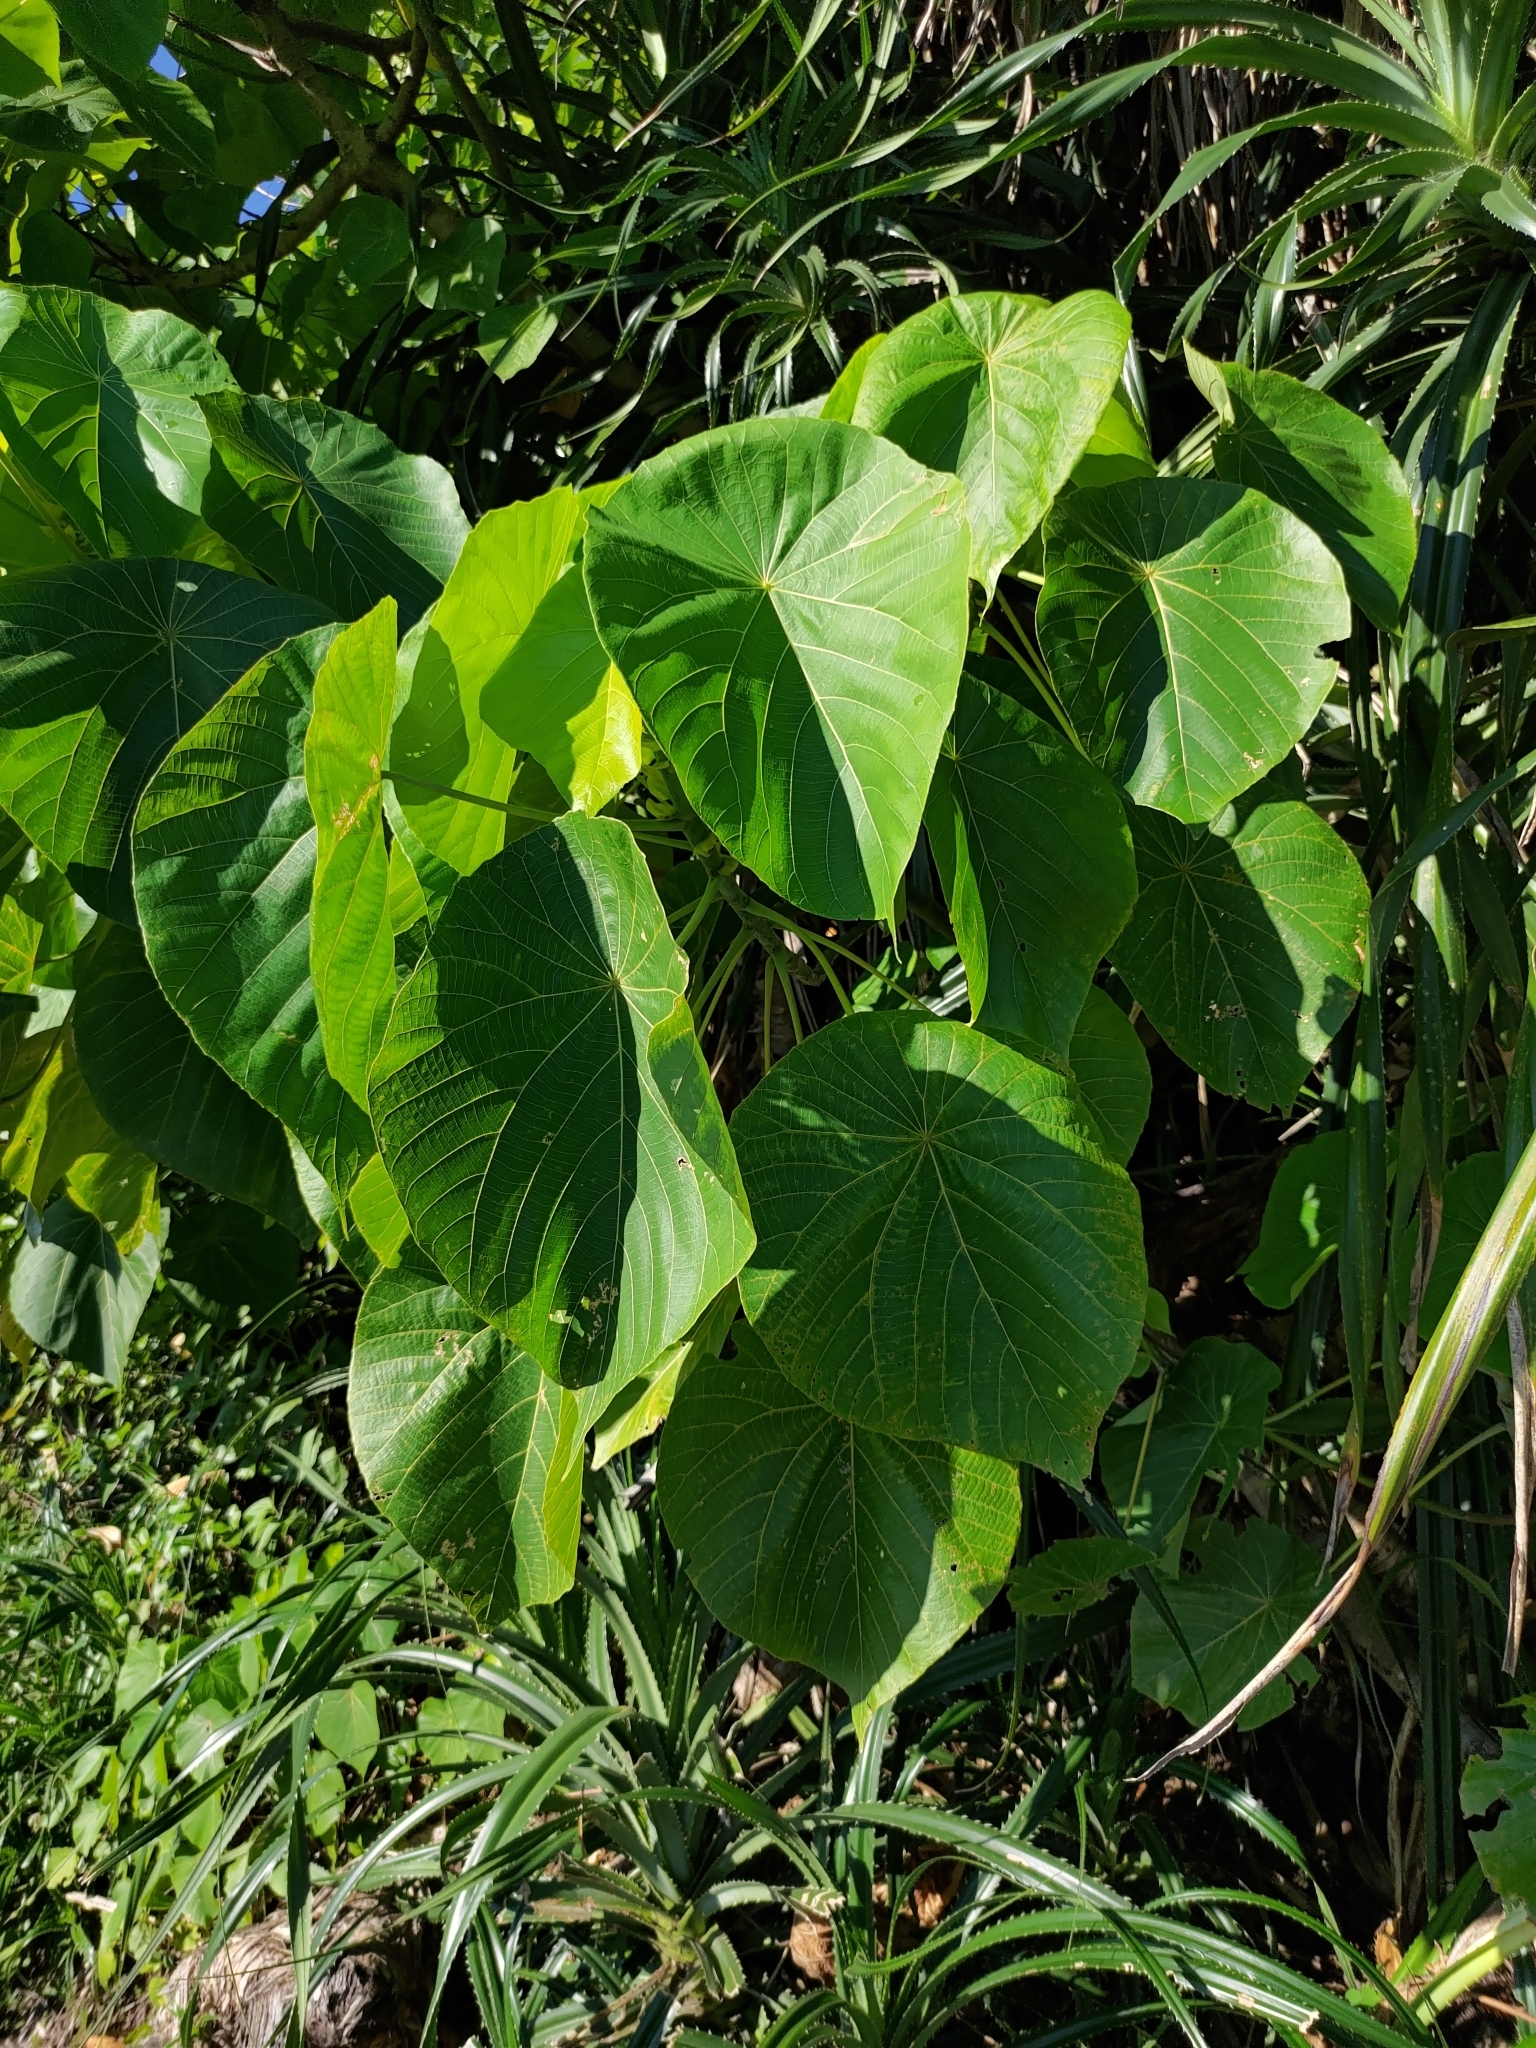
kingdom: Plantae
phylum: Tracheophyta
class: Magnoliopsida
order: Malpighiales
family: Euphorbiaceae
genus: Macaranga
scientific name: Macaranga tanarius
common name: Parasol leaf tree
